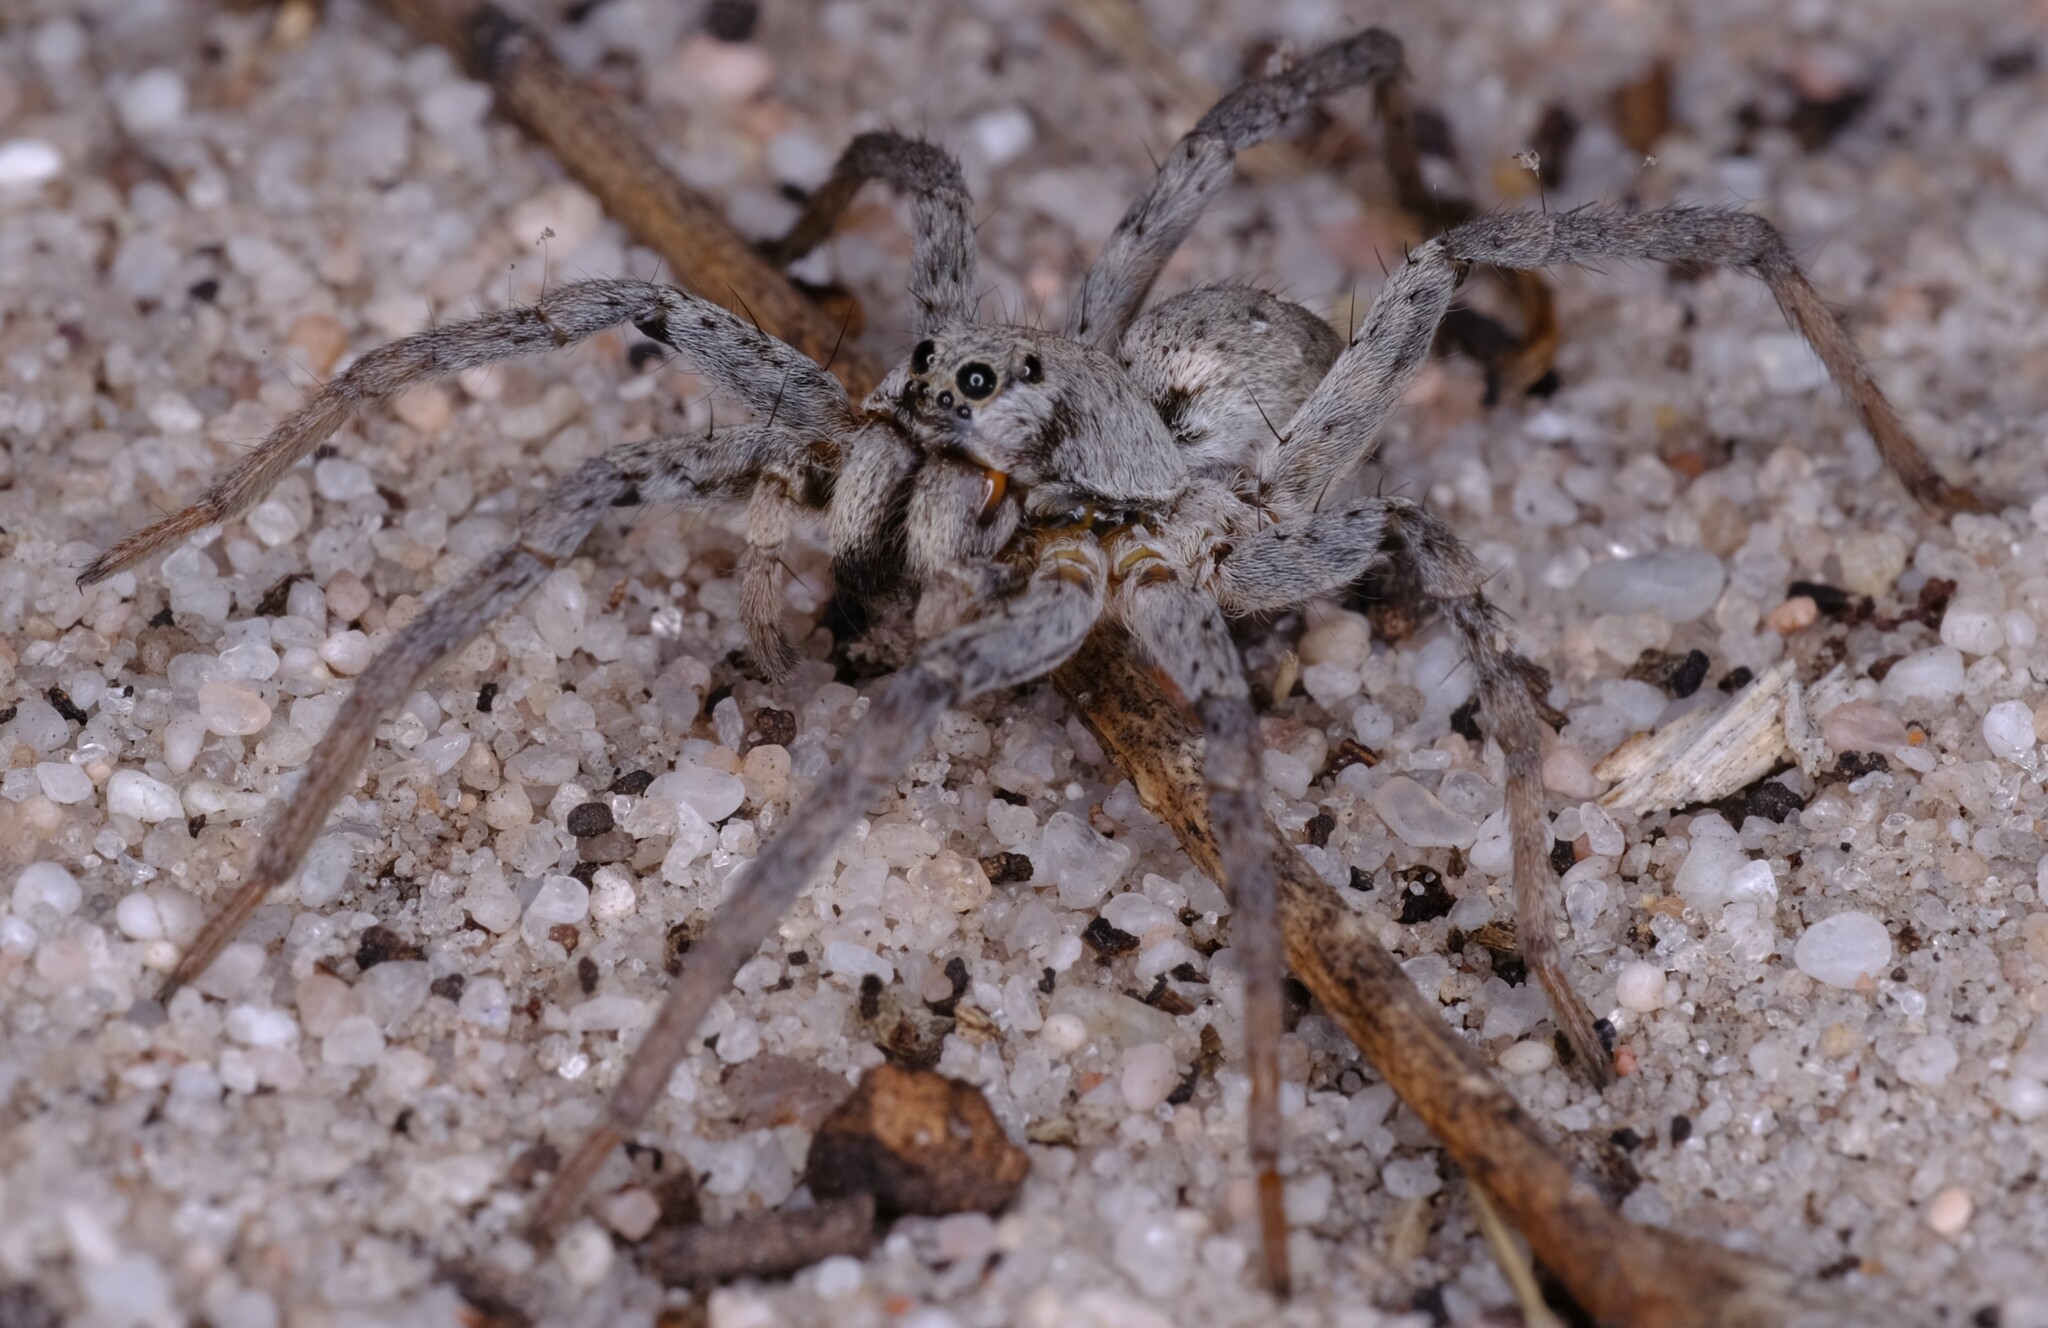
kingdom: Animalia
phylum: Arthropoda
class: Arachnida
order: Araneae
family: Lycosidae
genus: Portacosa
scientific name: Portacosa cinerea
